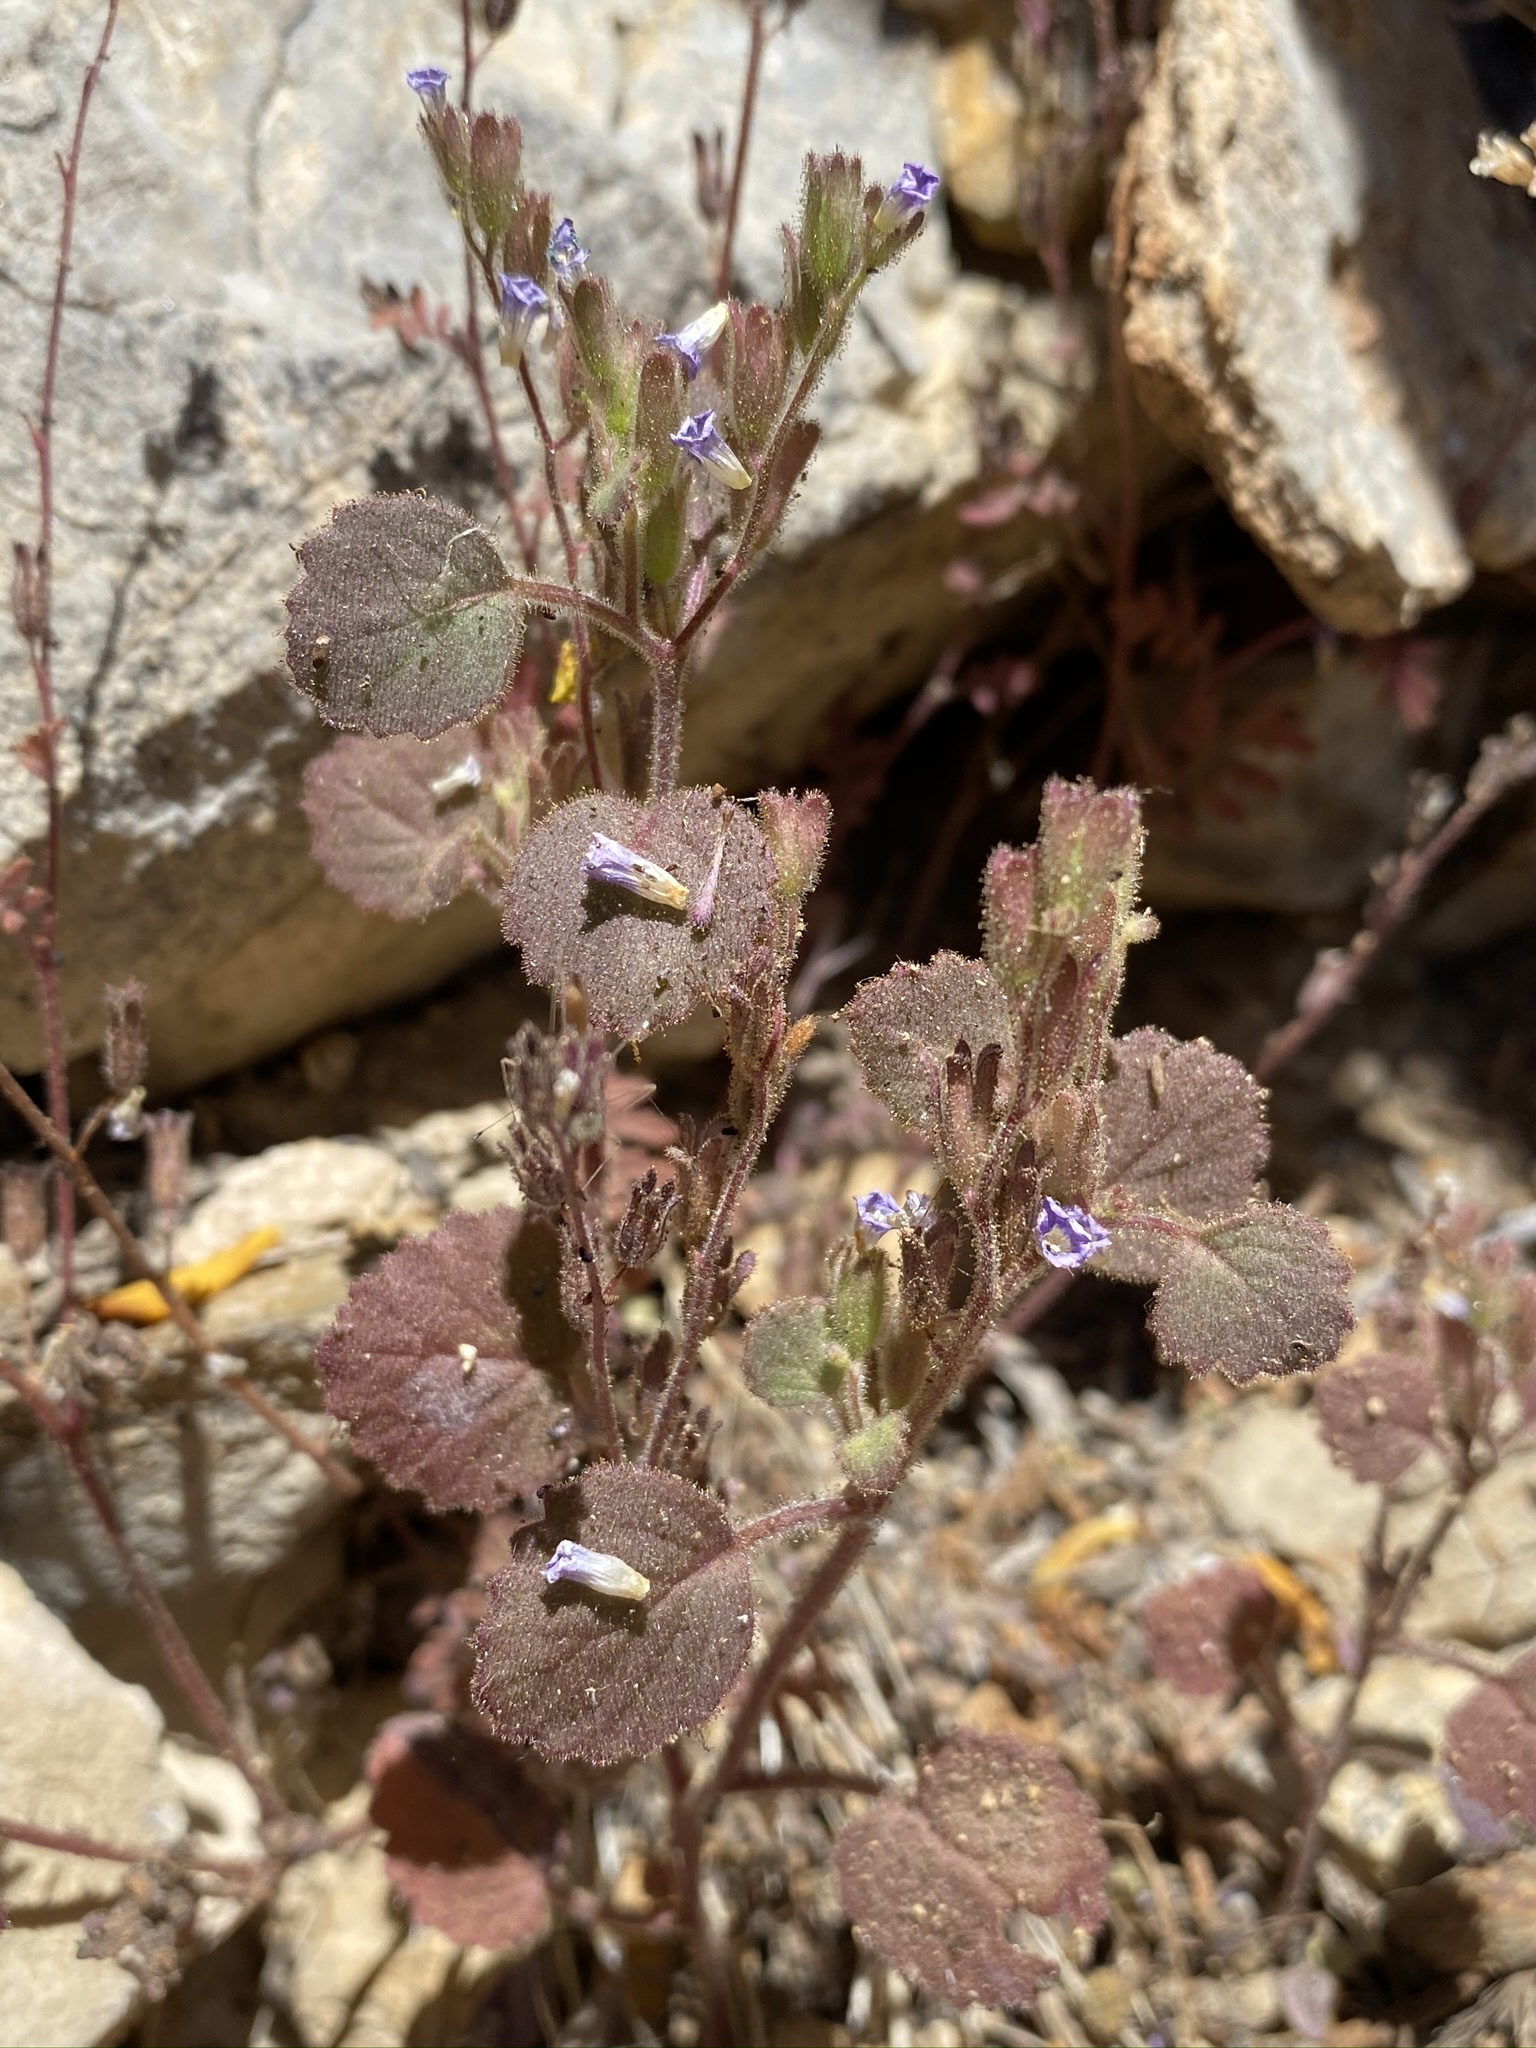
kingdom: Plantae
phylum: Tracheophyta
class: Magnoliopsida
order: Boraginales
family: Hydrophyllaceae
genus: Phacelia
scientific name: Phacelia peirsoniana
